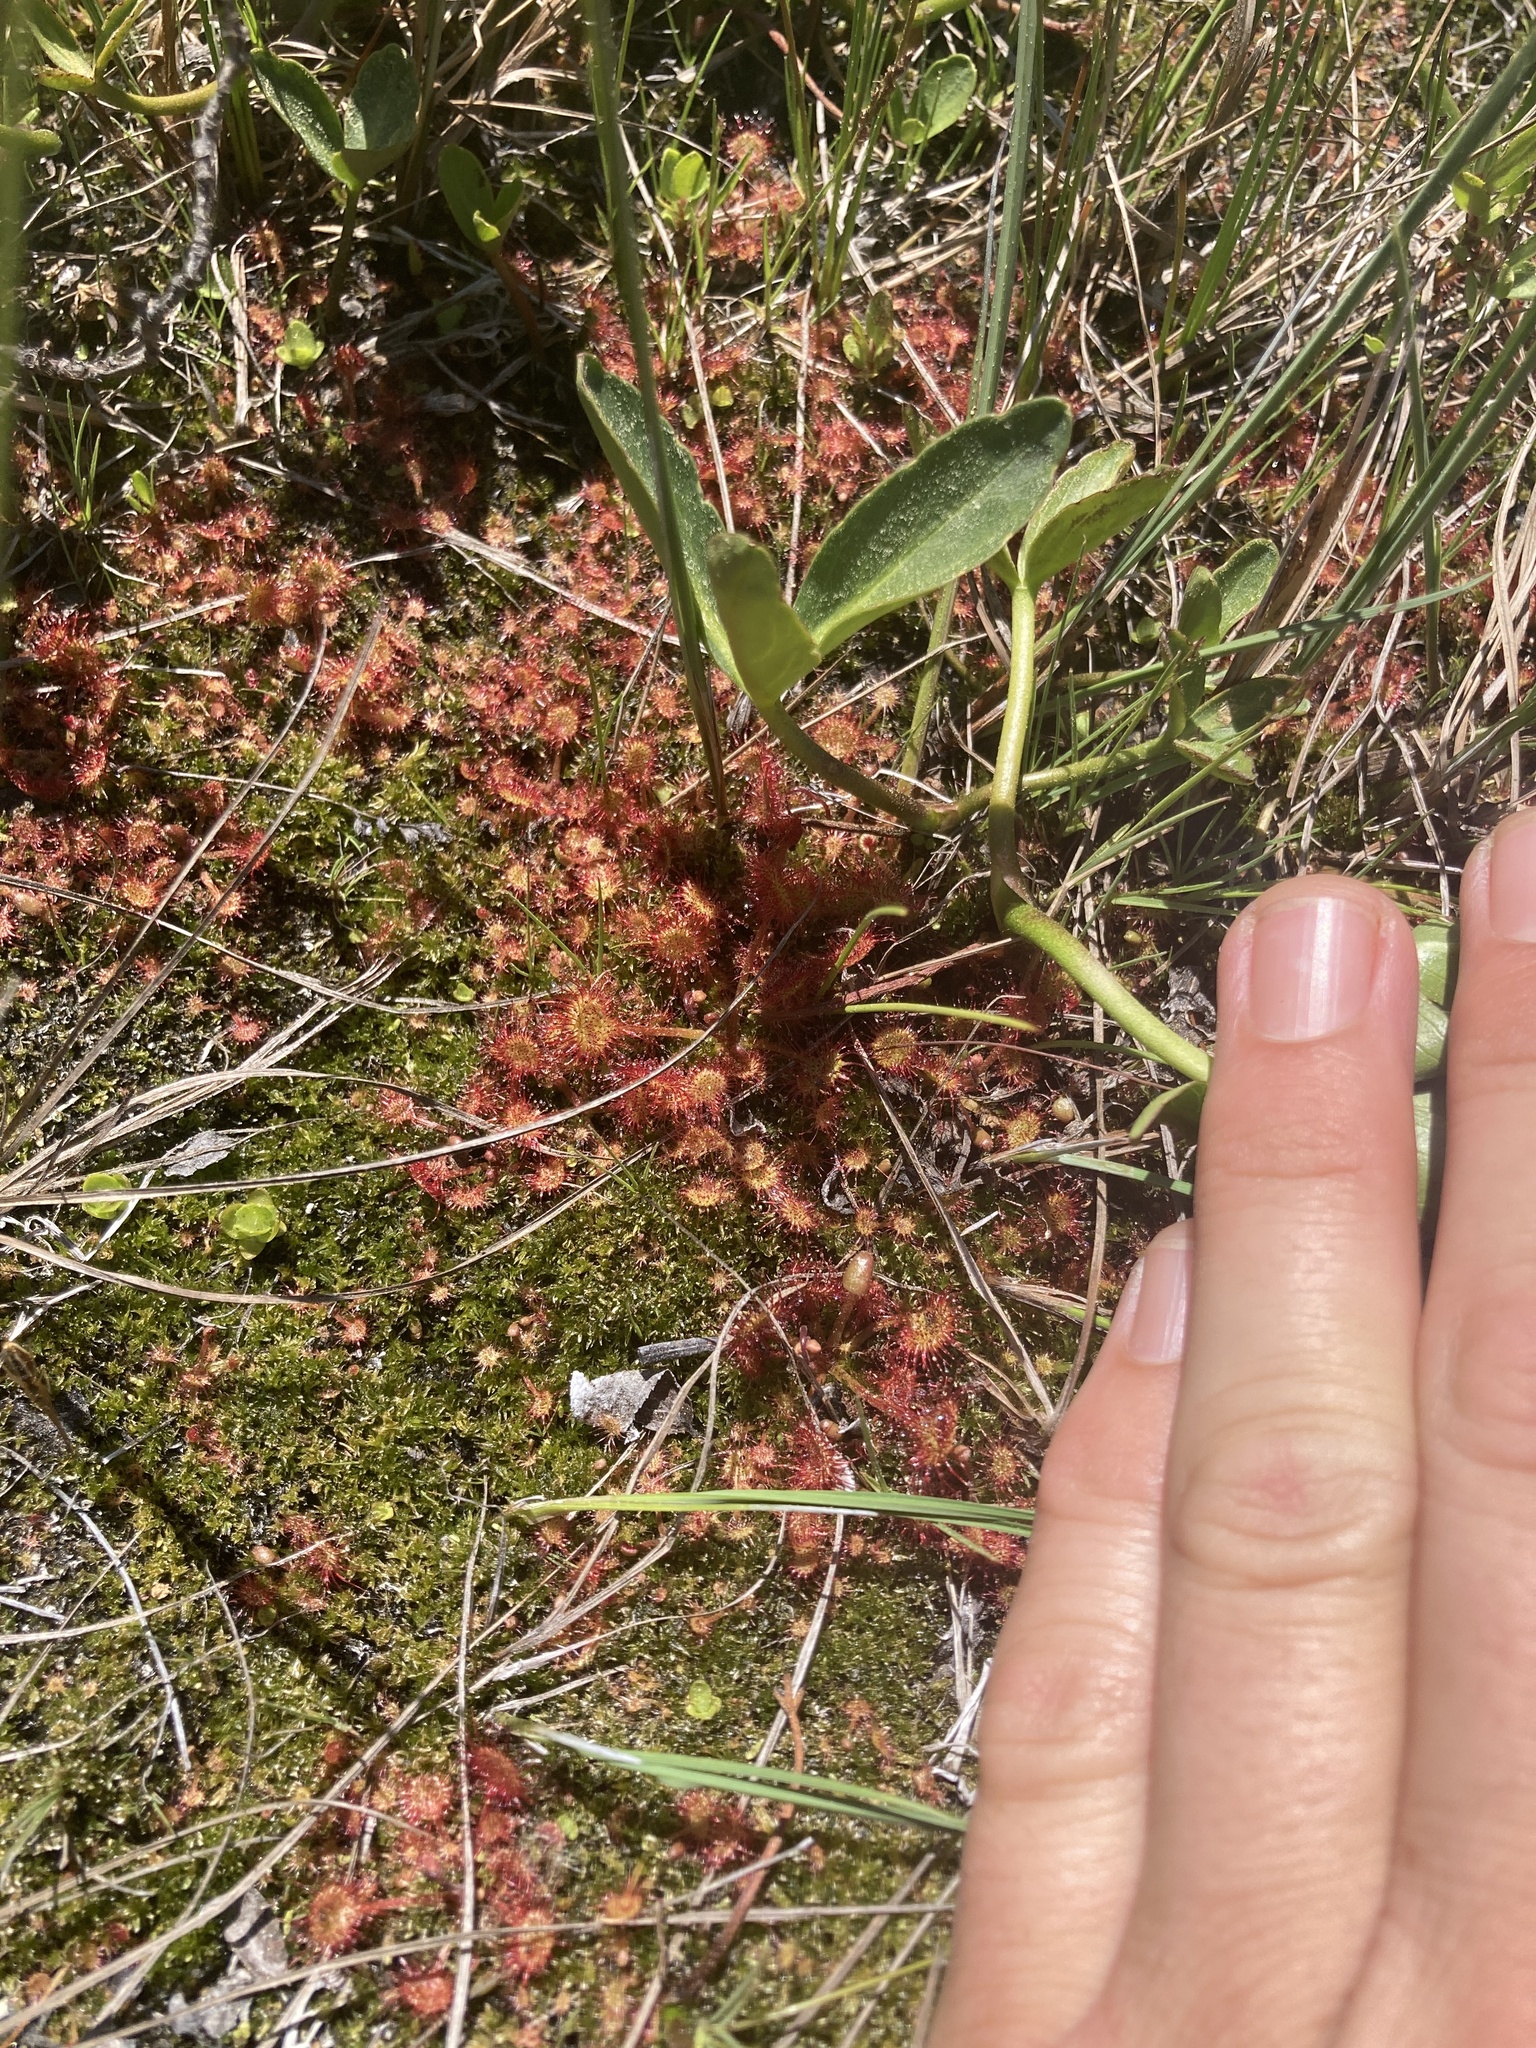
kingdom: Plantae
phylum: Tracheophyta
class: Magnoliopsida
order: Caryophyllales
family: Droseraceae
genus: Drosera
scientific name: Drosera rotundifolia
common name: Round-leaved sundew
